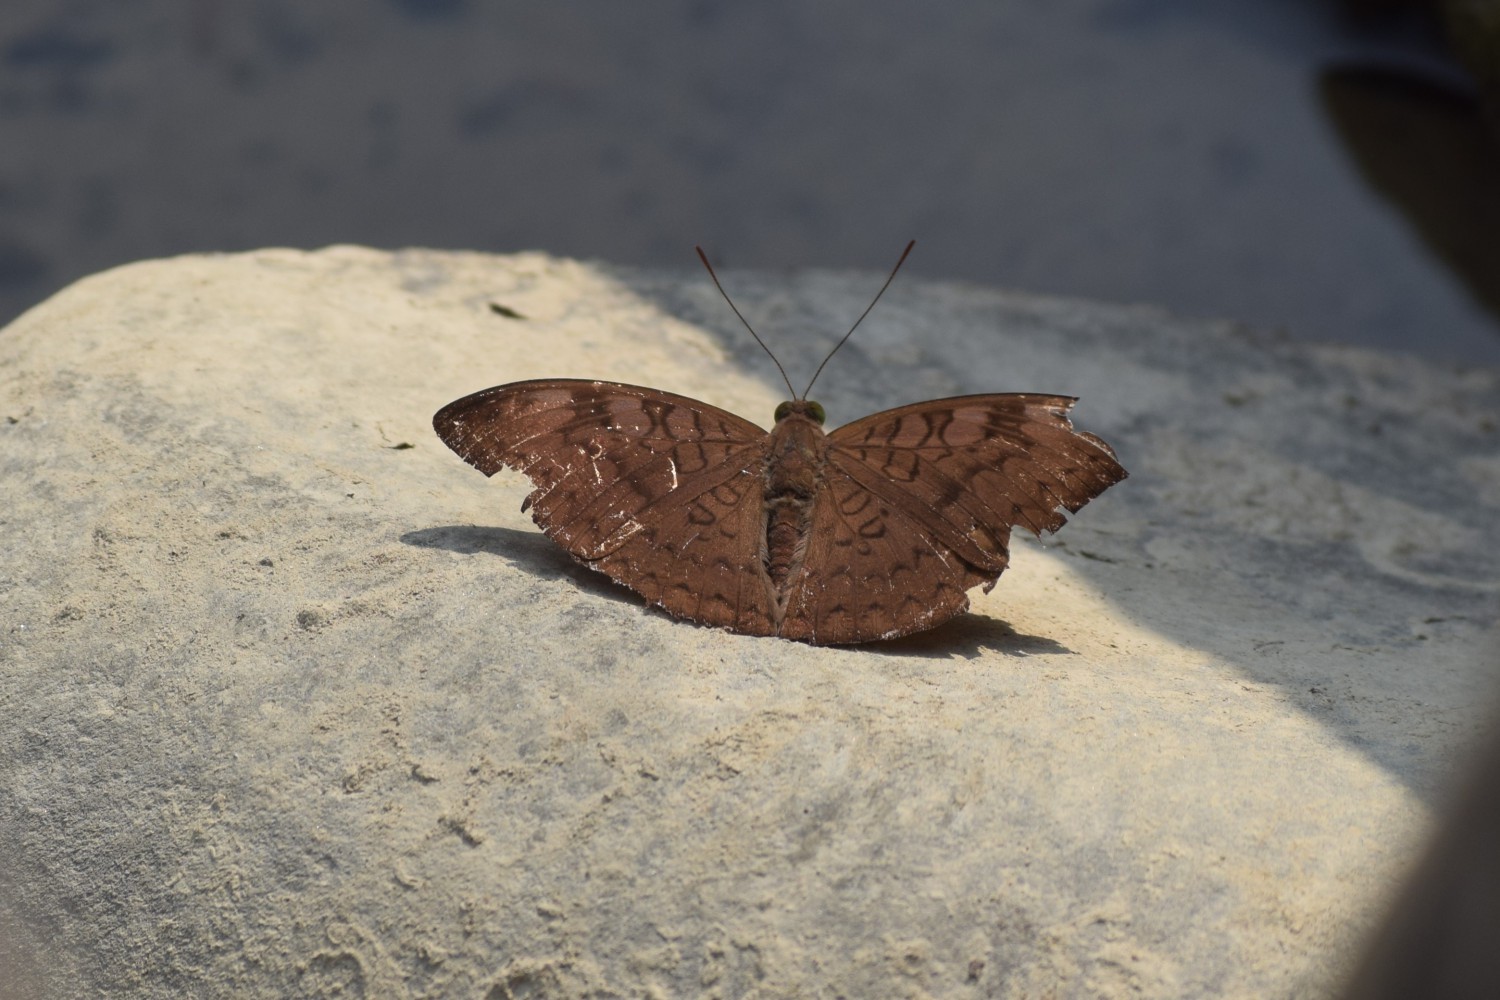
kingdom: Animalia
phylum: Arthropoda
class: Insecta
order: Lepidoptera
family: Nymphalidae
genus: Euthalia
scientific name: Euthalia monina
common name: Powdered baron
